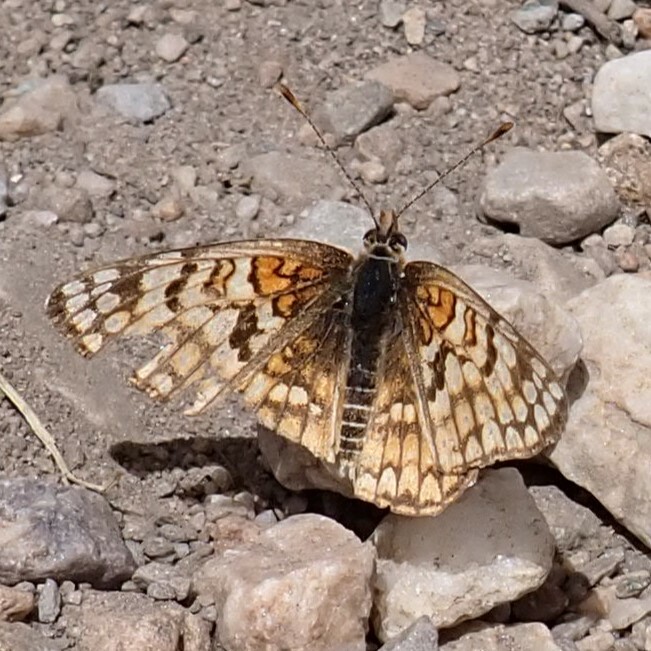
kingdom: Animalia
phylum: Arthropoda
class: Insecta
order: Lepidoptera
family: Nymphalidae
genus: Chlosyne
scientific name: Chlosyne acastus
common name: Sagebrush checkerspot
